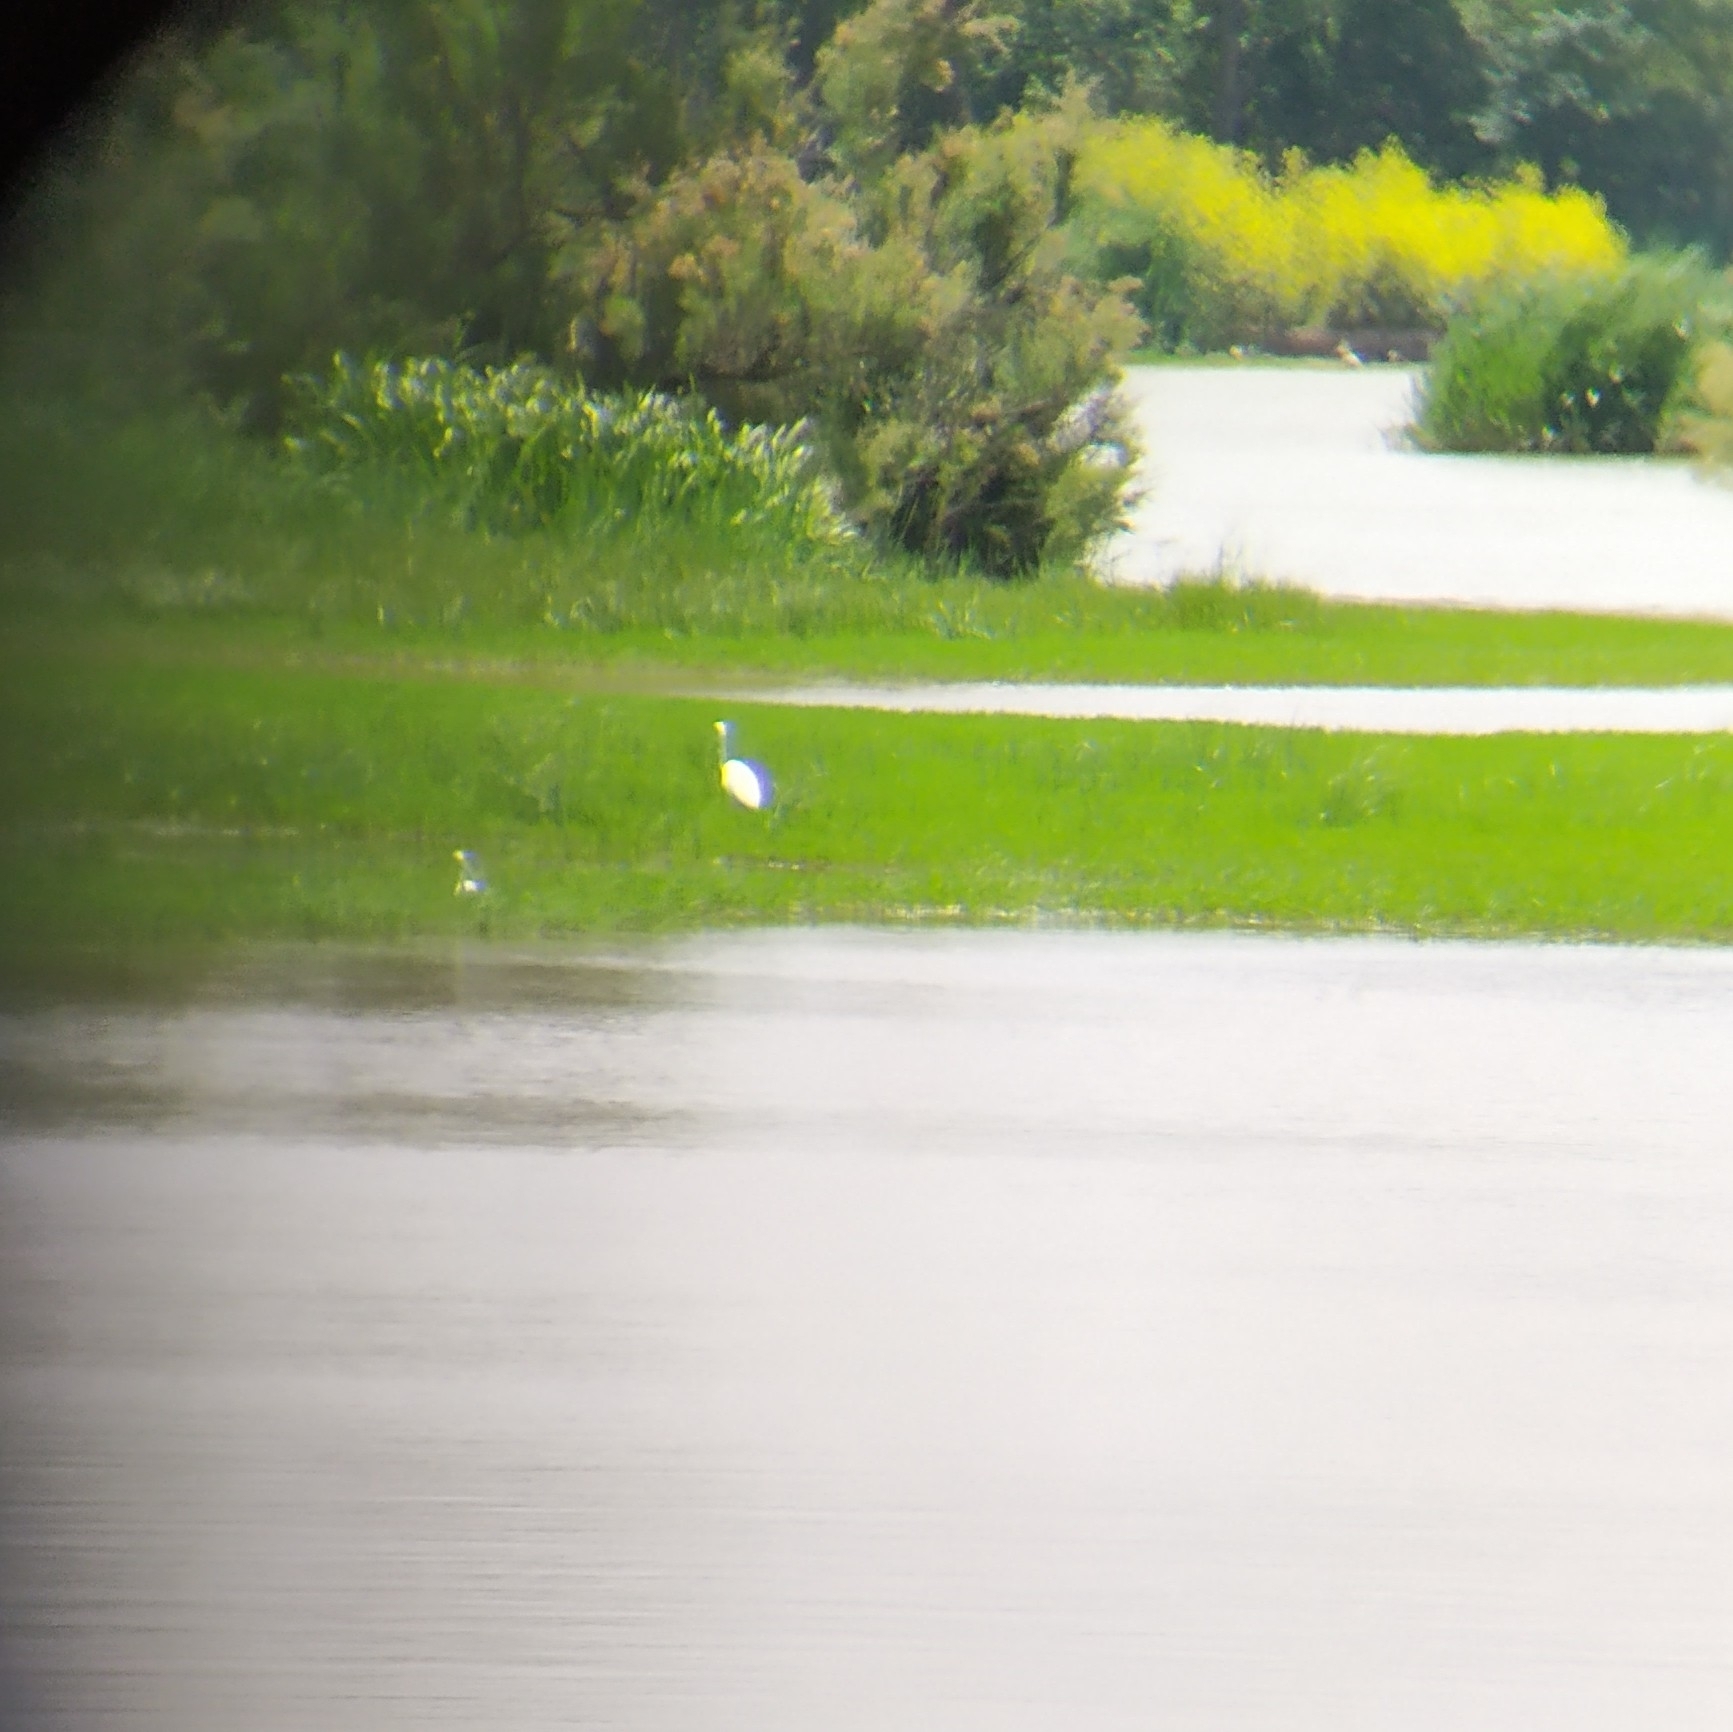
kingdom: Animalia
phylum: Chordata
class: Aves
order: Pelecaniformes
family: Ardeidae
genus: Ardea
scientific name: Ardea alba
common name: Great egret
